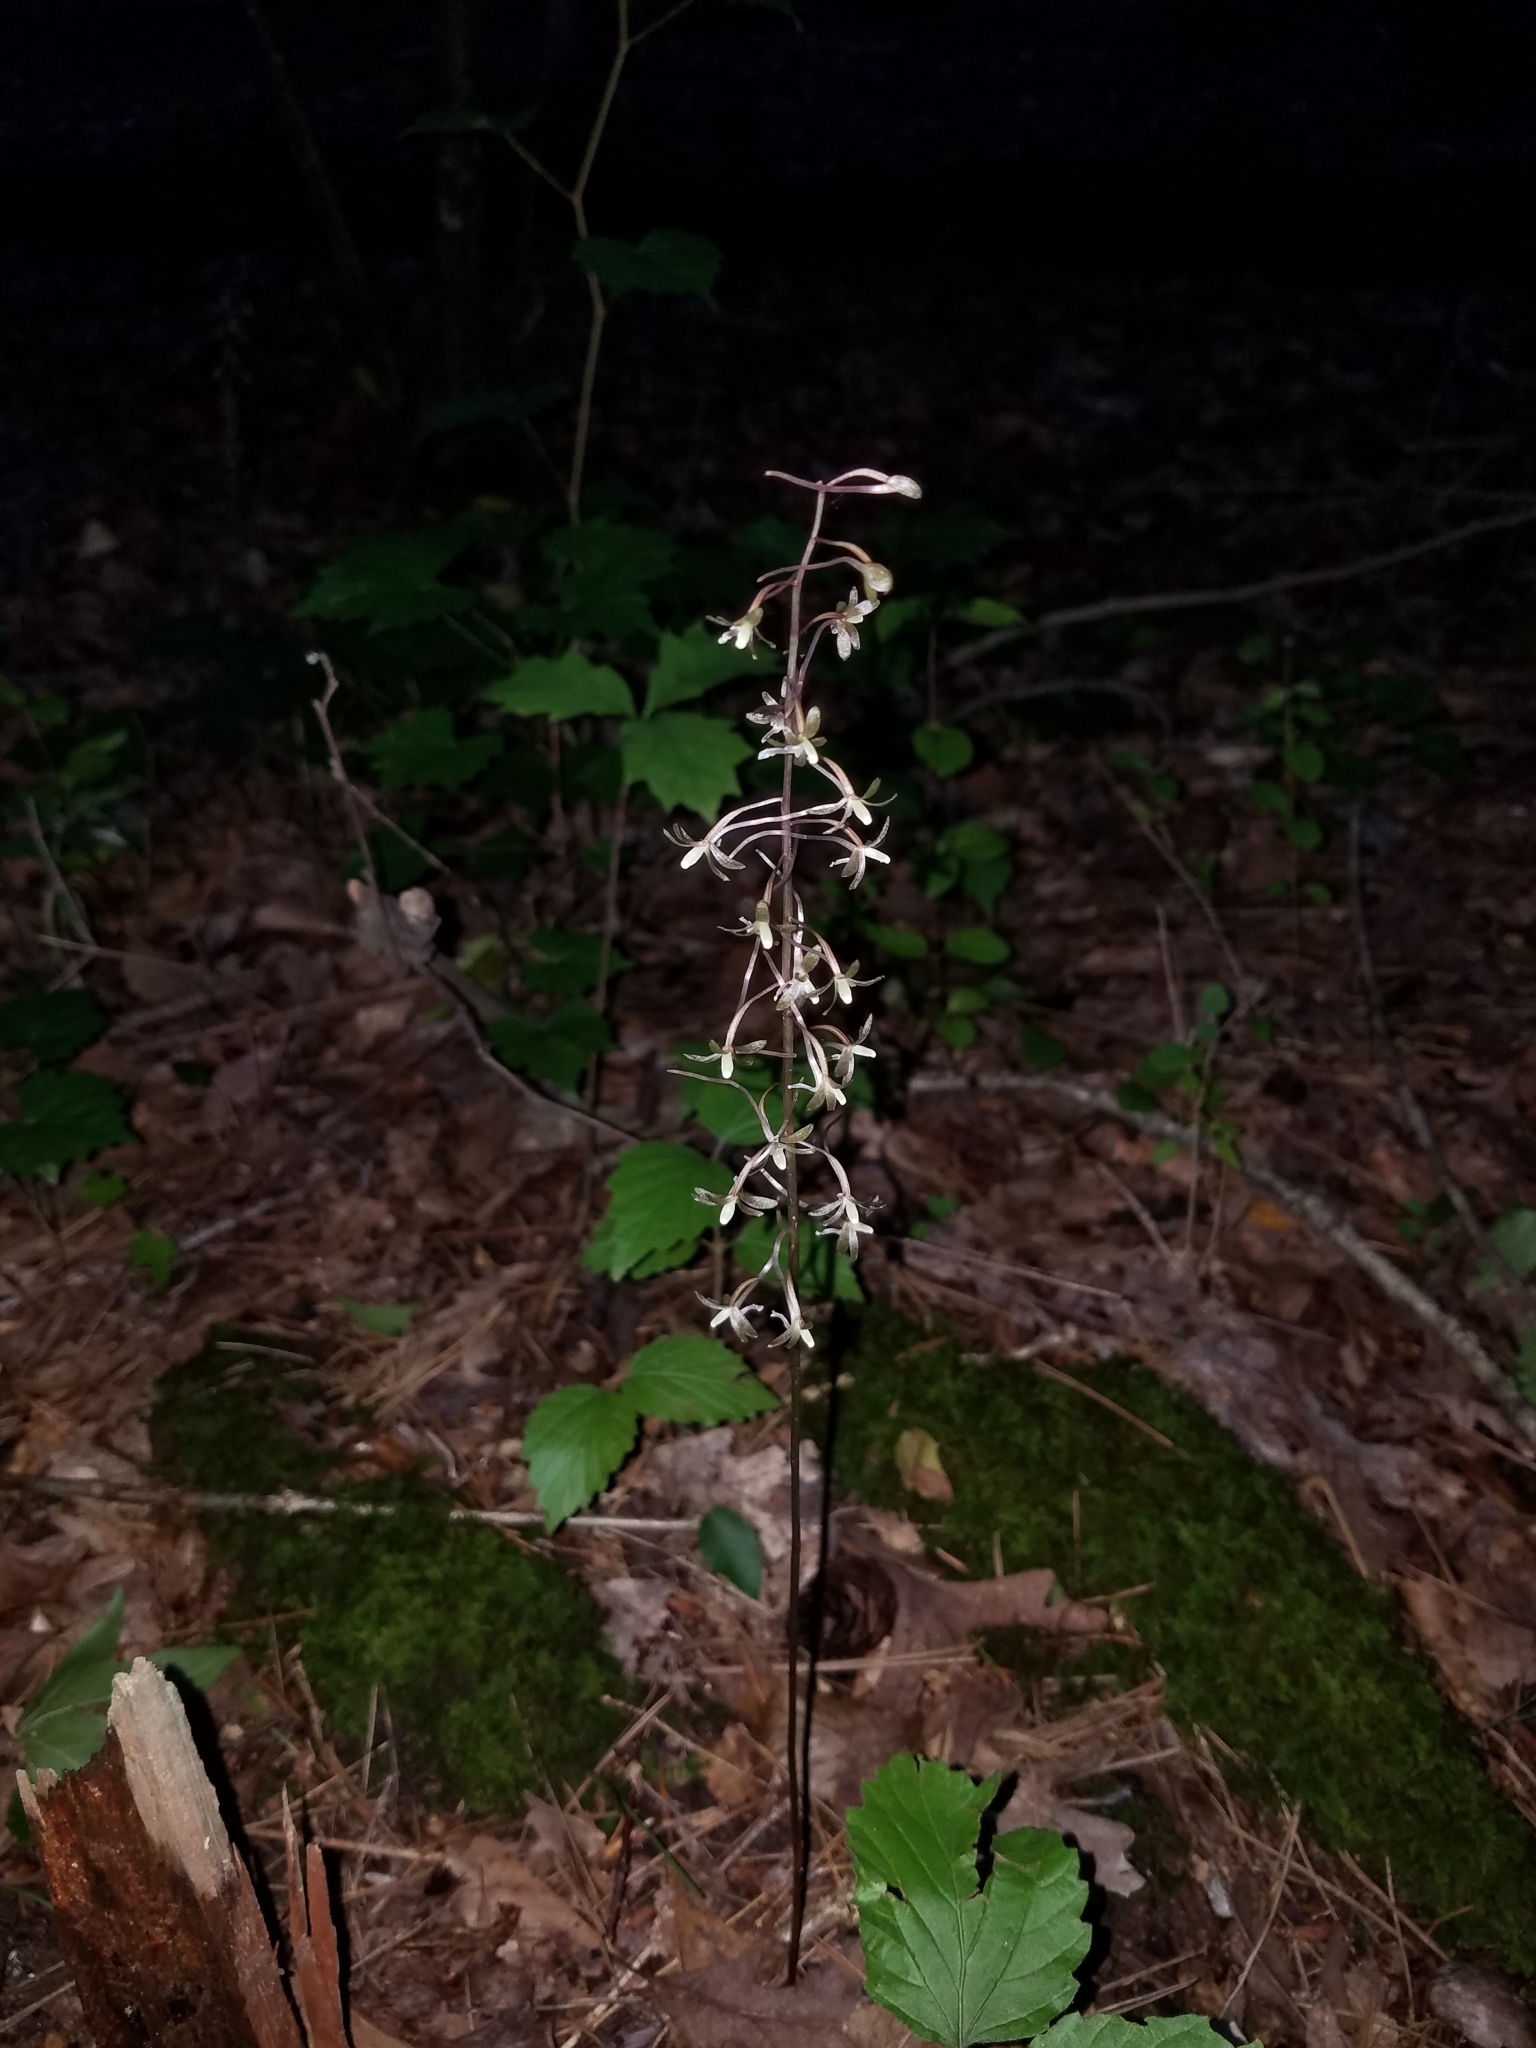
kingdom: Plantae
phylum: Tracheophyta
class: Liliopsida
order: Asparagales
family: Orchidaceae
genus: Tipularia
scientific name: Tipularia discolor
